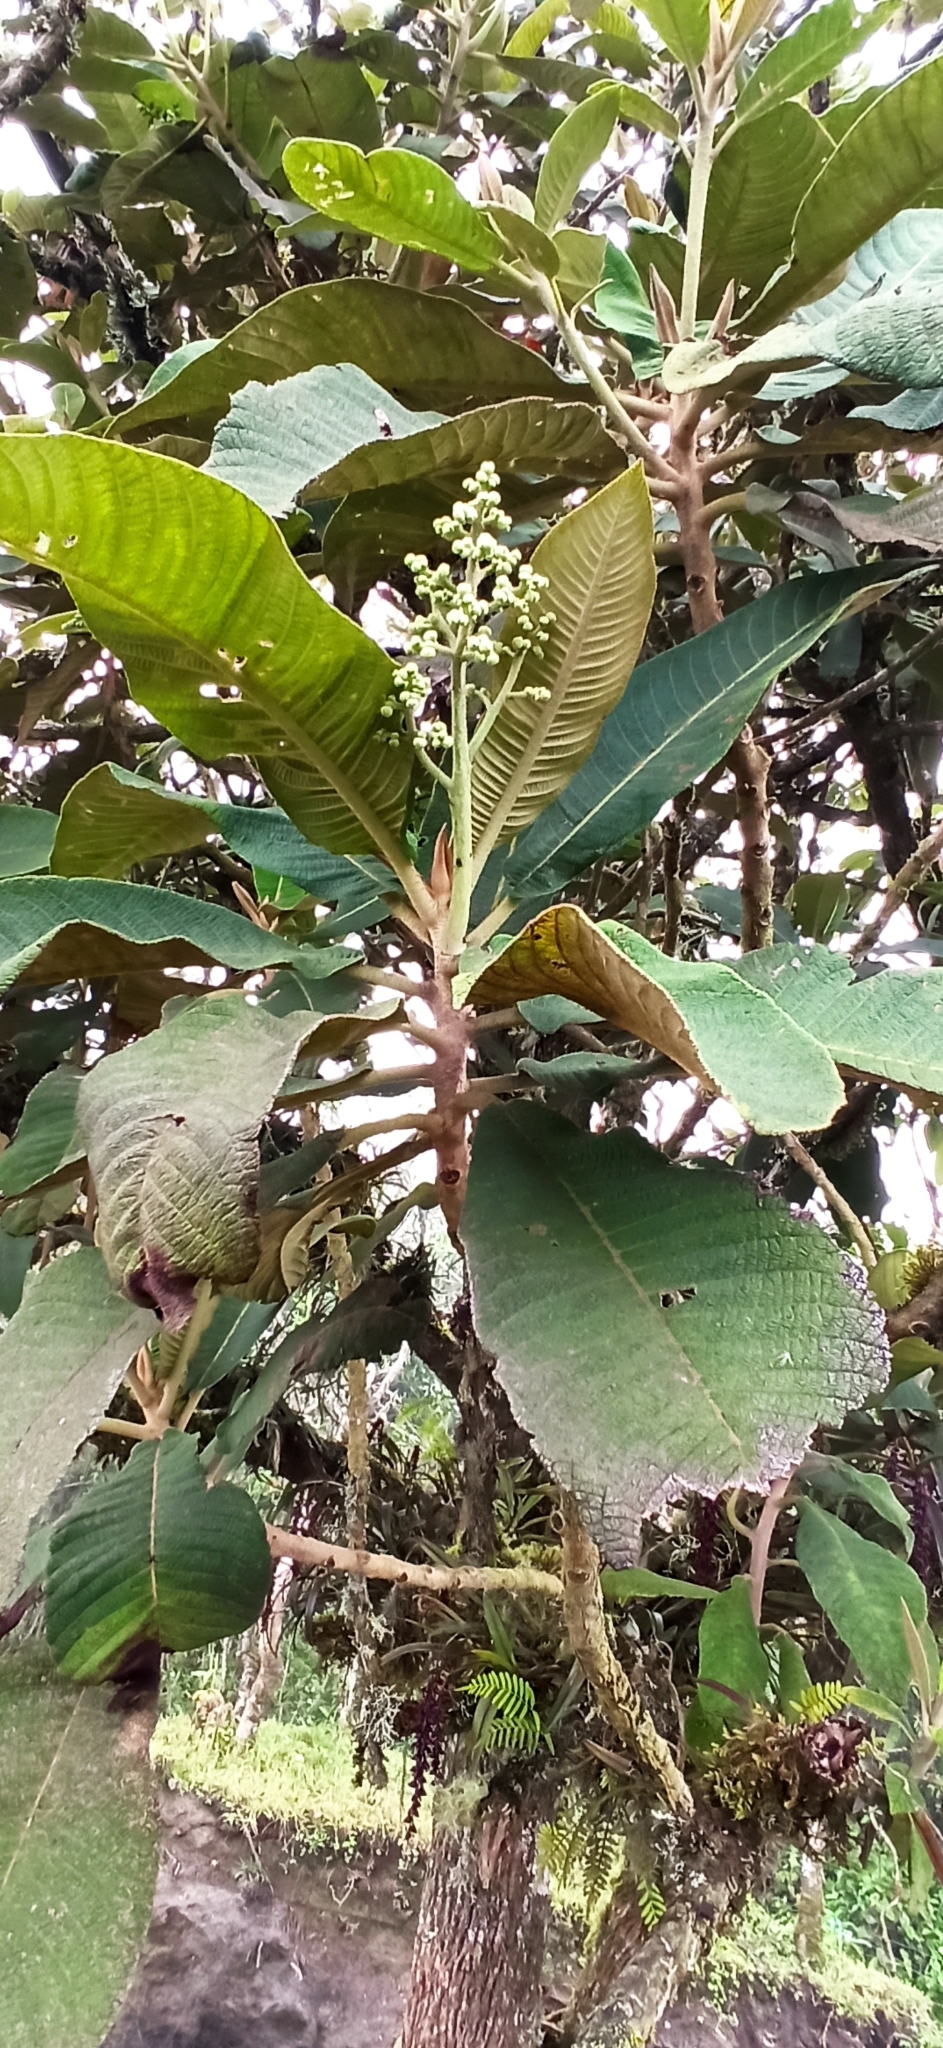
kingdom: Plantae
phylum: Tracheophyta
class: Magnoliopsida
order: Ericales
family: Actinidiaceae
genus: Saurauia
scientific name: Saurauia tomentosa
